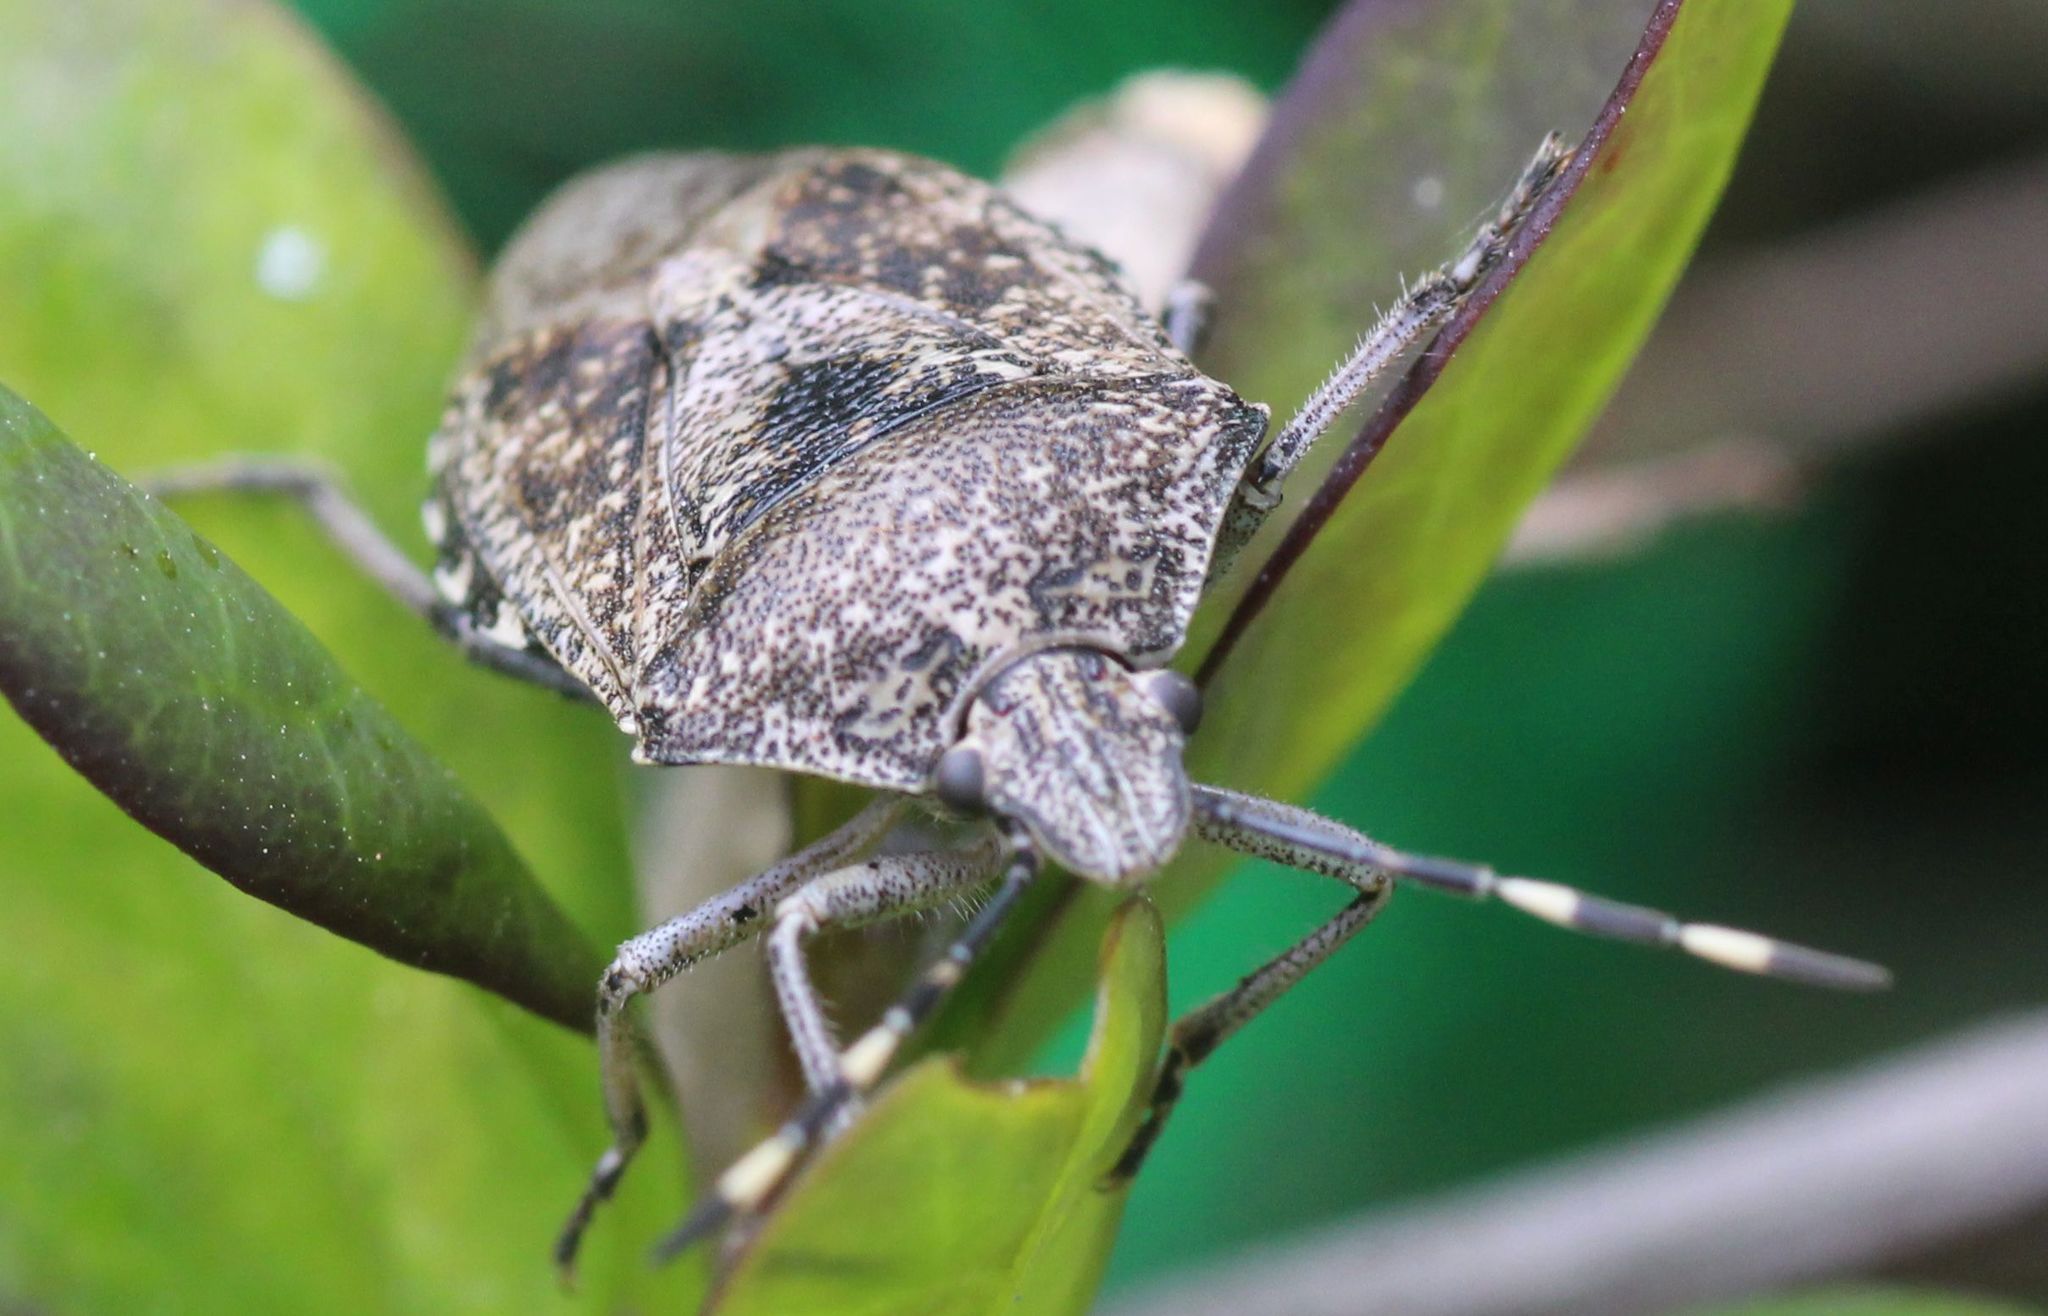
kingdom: Animalia
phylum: Arthropoda
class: Insecta
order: Hemiptera
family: Pentatomidae
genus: Rhaphigaster
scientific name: Rhaphigaster nebulosa
